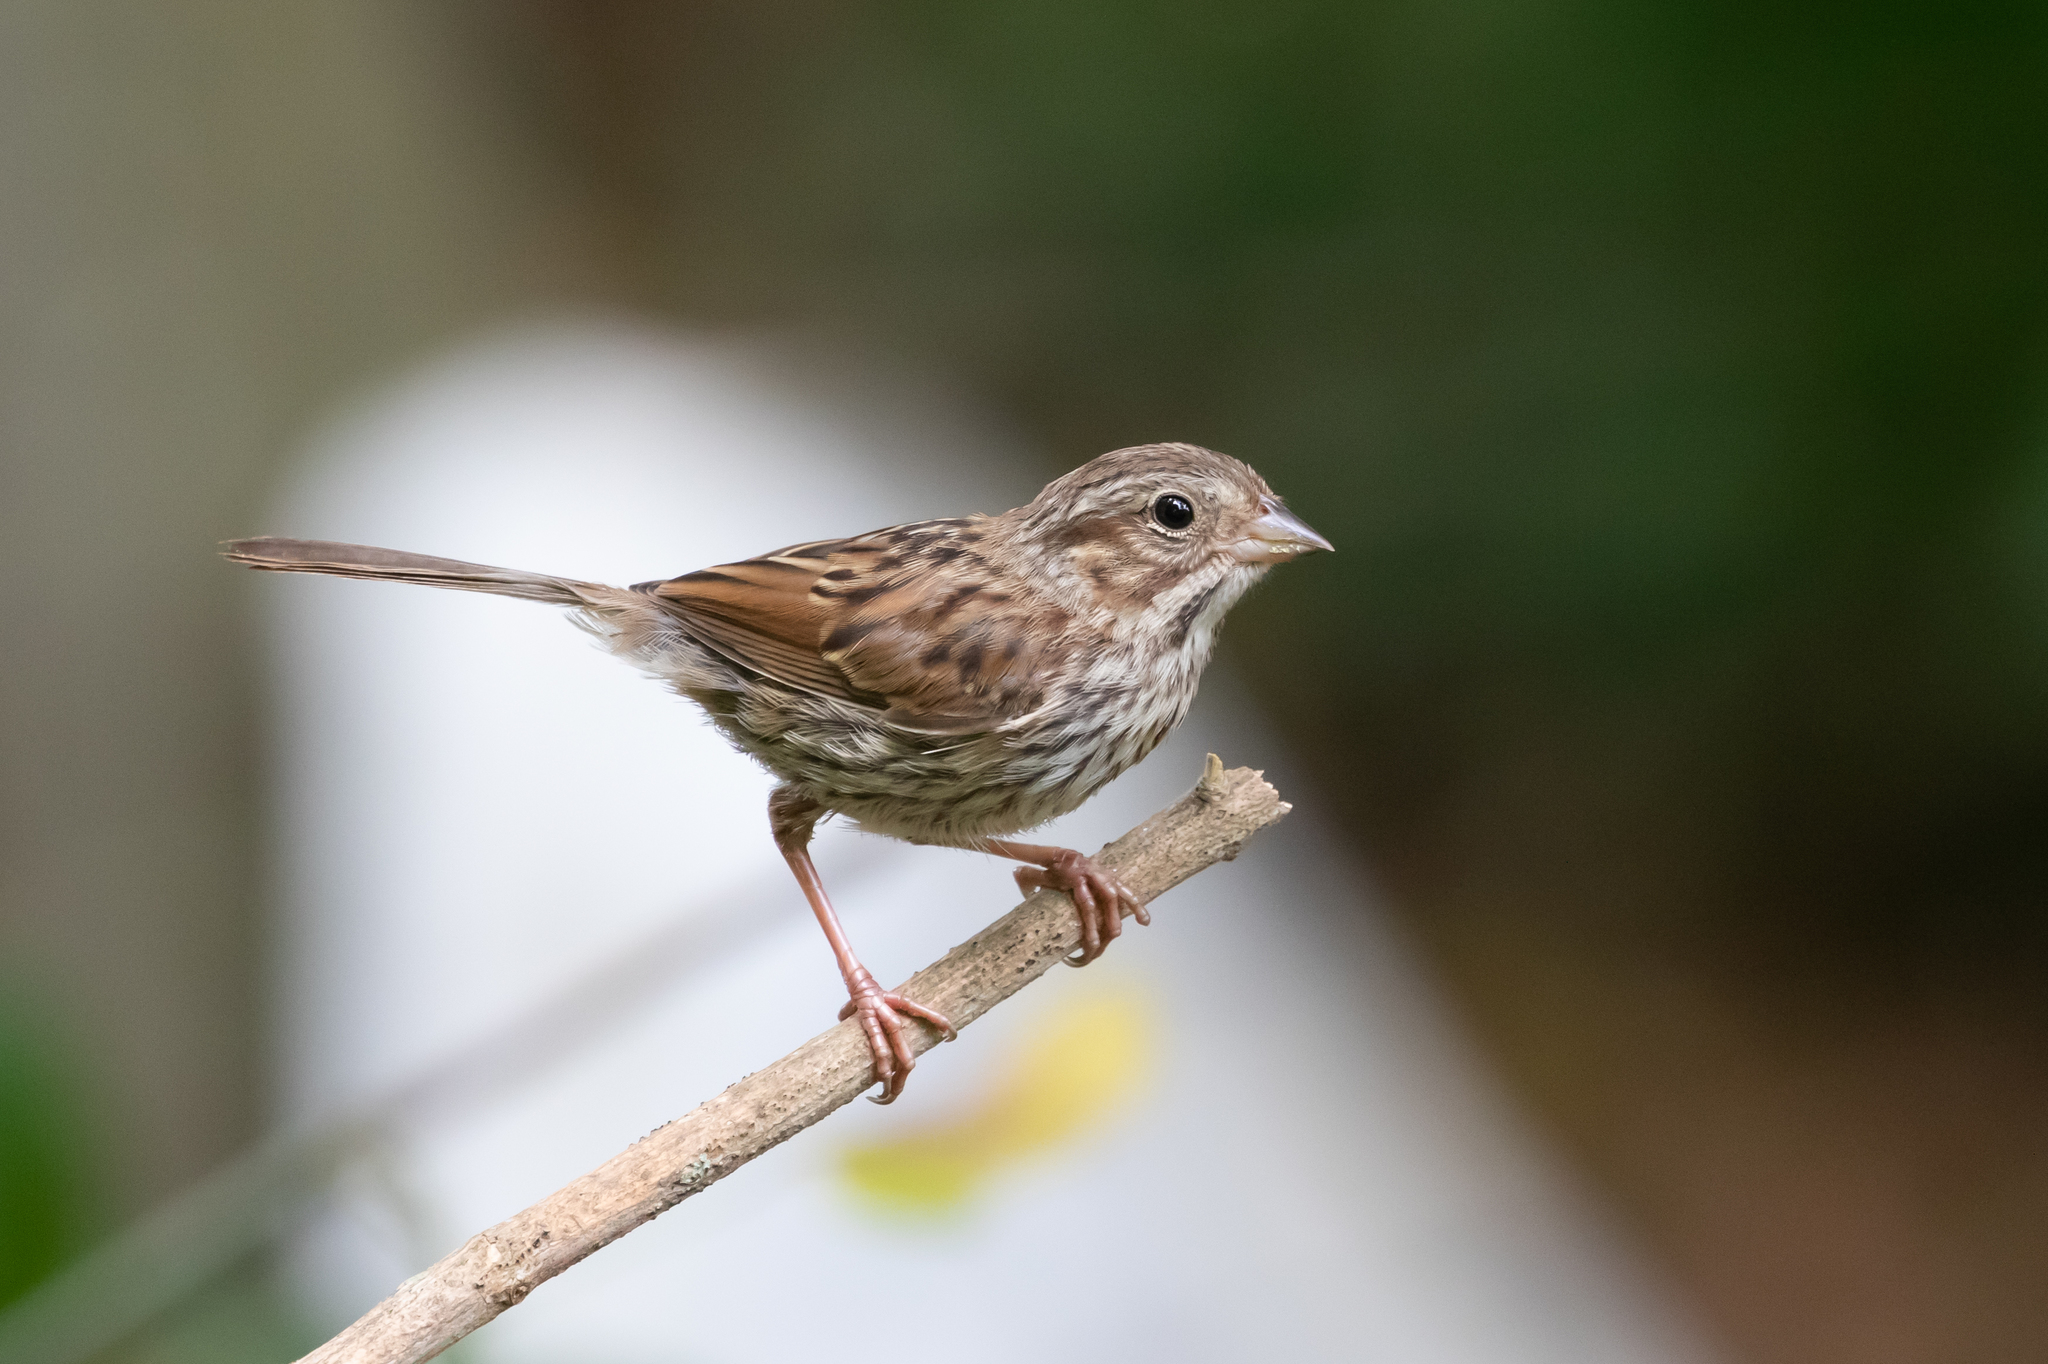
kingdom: Animalia
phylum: Chordata
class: Aves
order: Passeriformes
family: Passerellidae
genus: Melospiza
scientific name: Melospiza melodia
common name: Song sparrow
